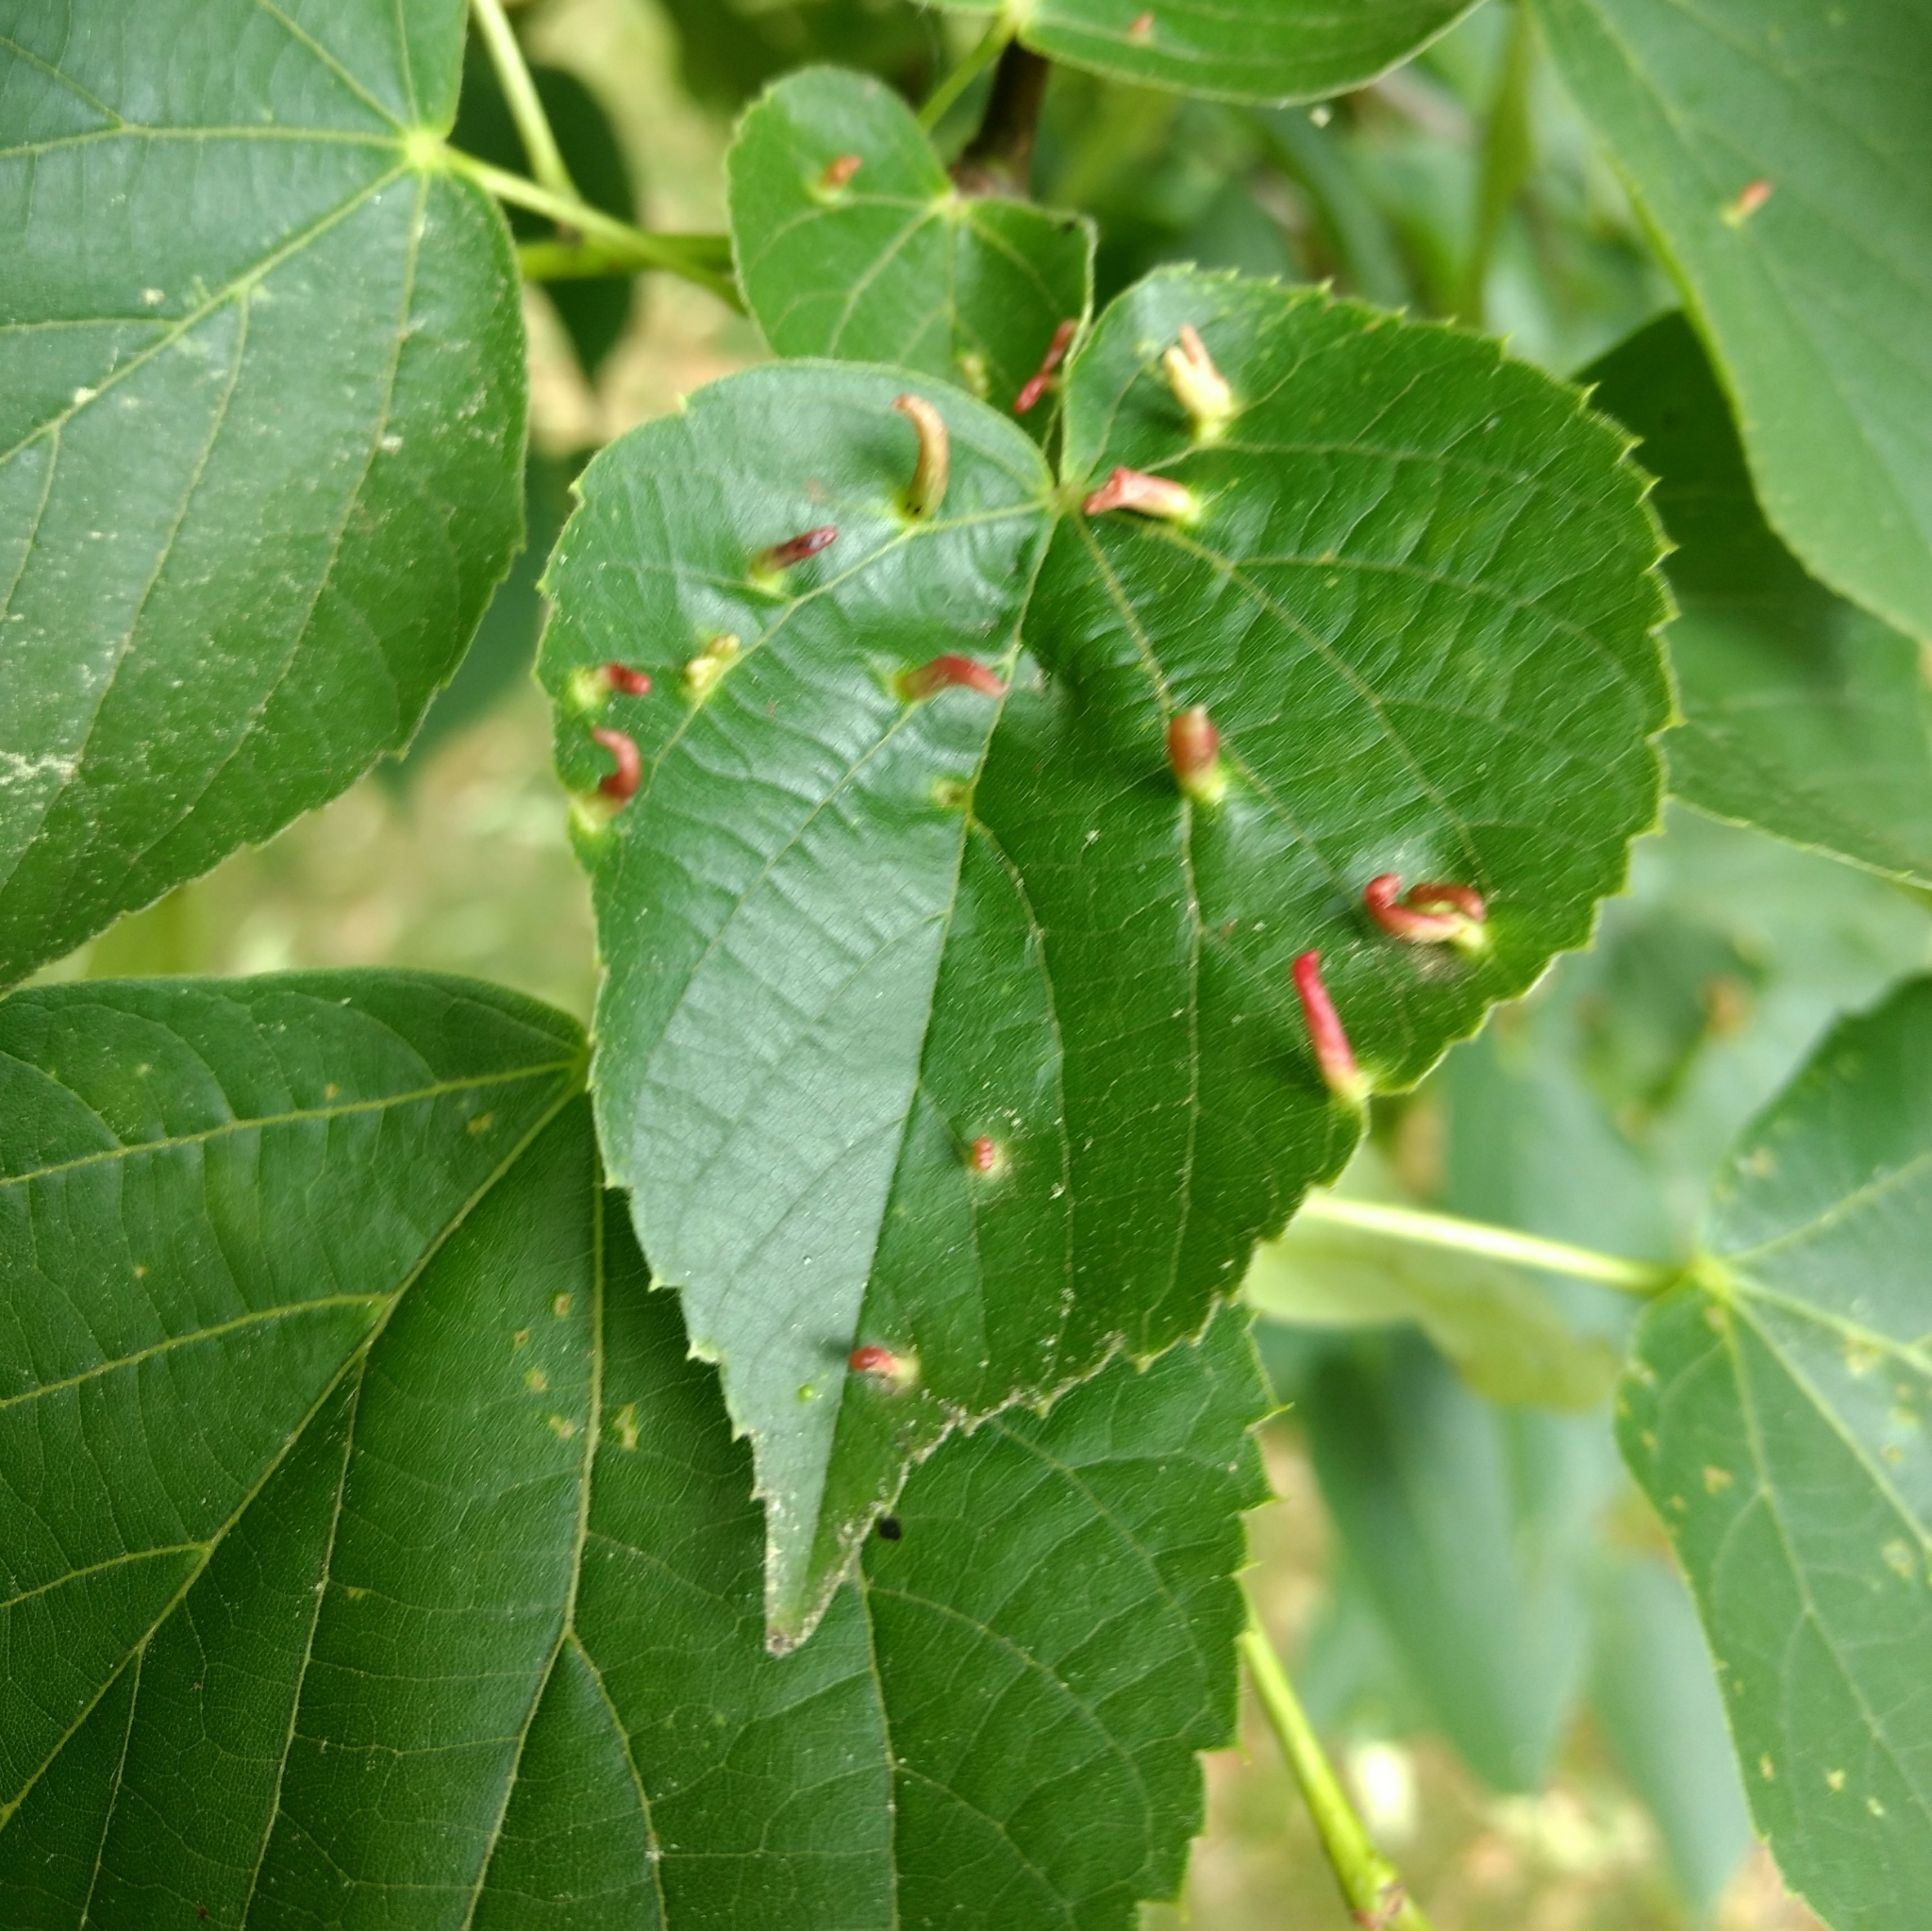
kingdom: Animalia
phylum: Arthropoda
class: Arachnida
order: Trombidiformes
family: Eriophyidae
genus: Eriophyes
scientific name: Eriophyes tiliae
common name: Red nail gall mite
